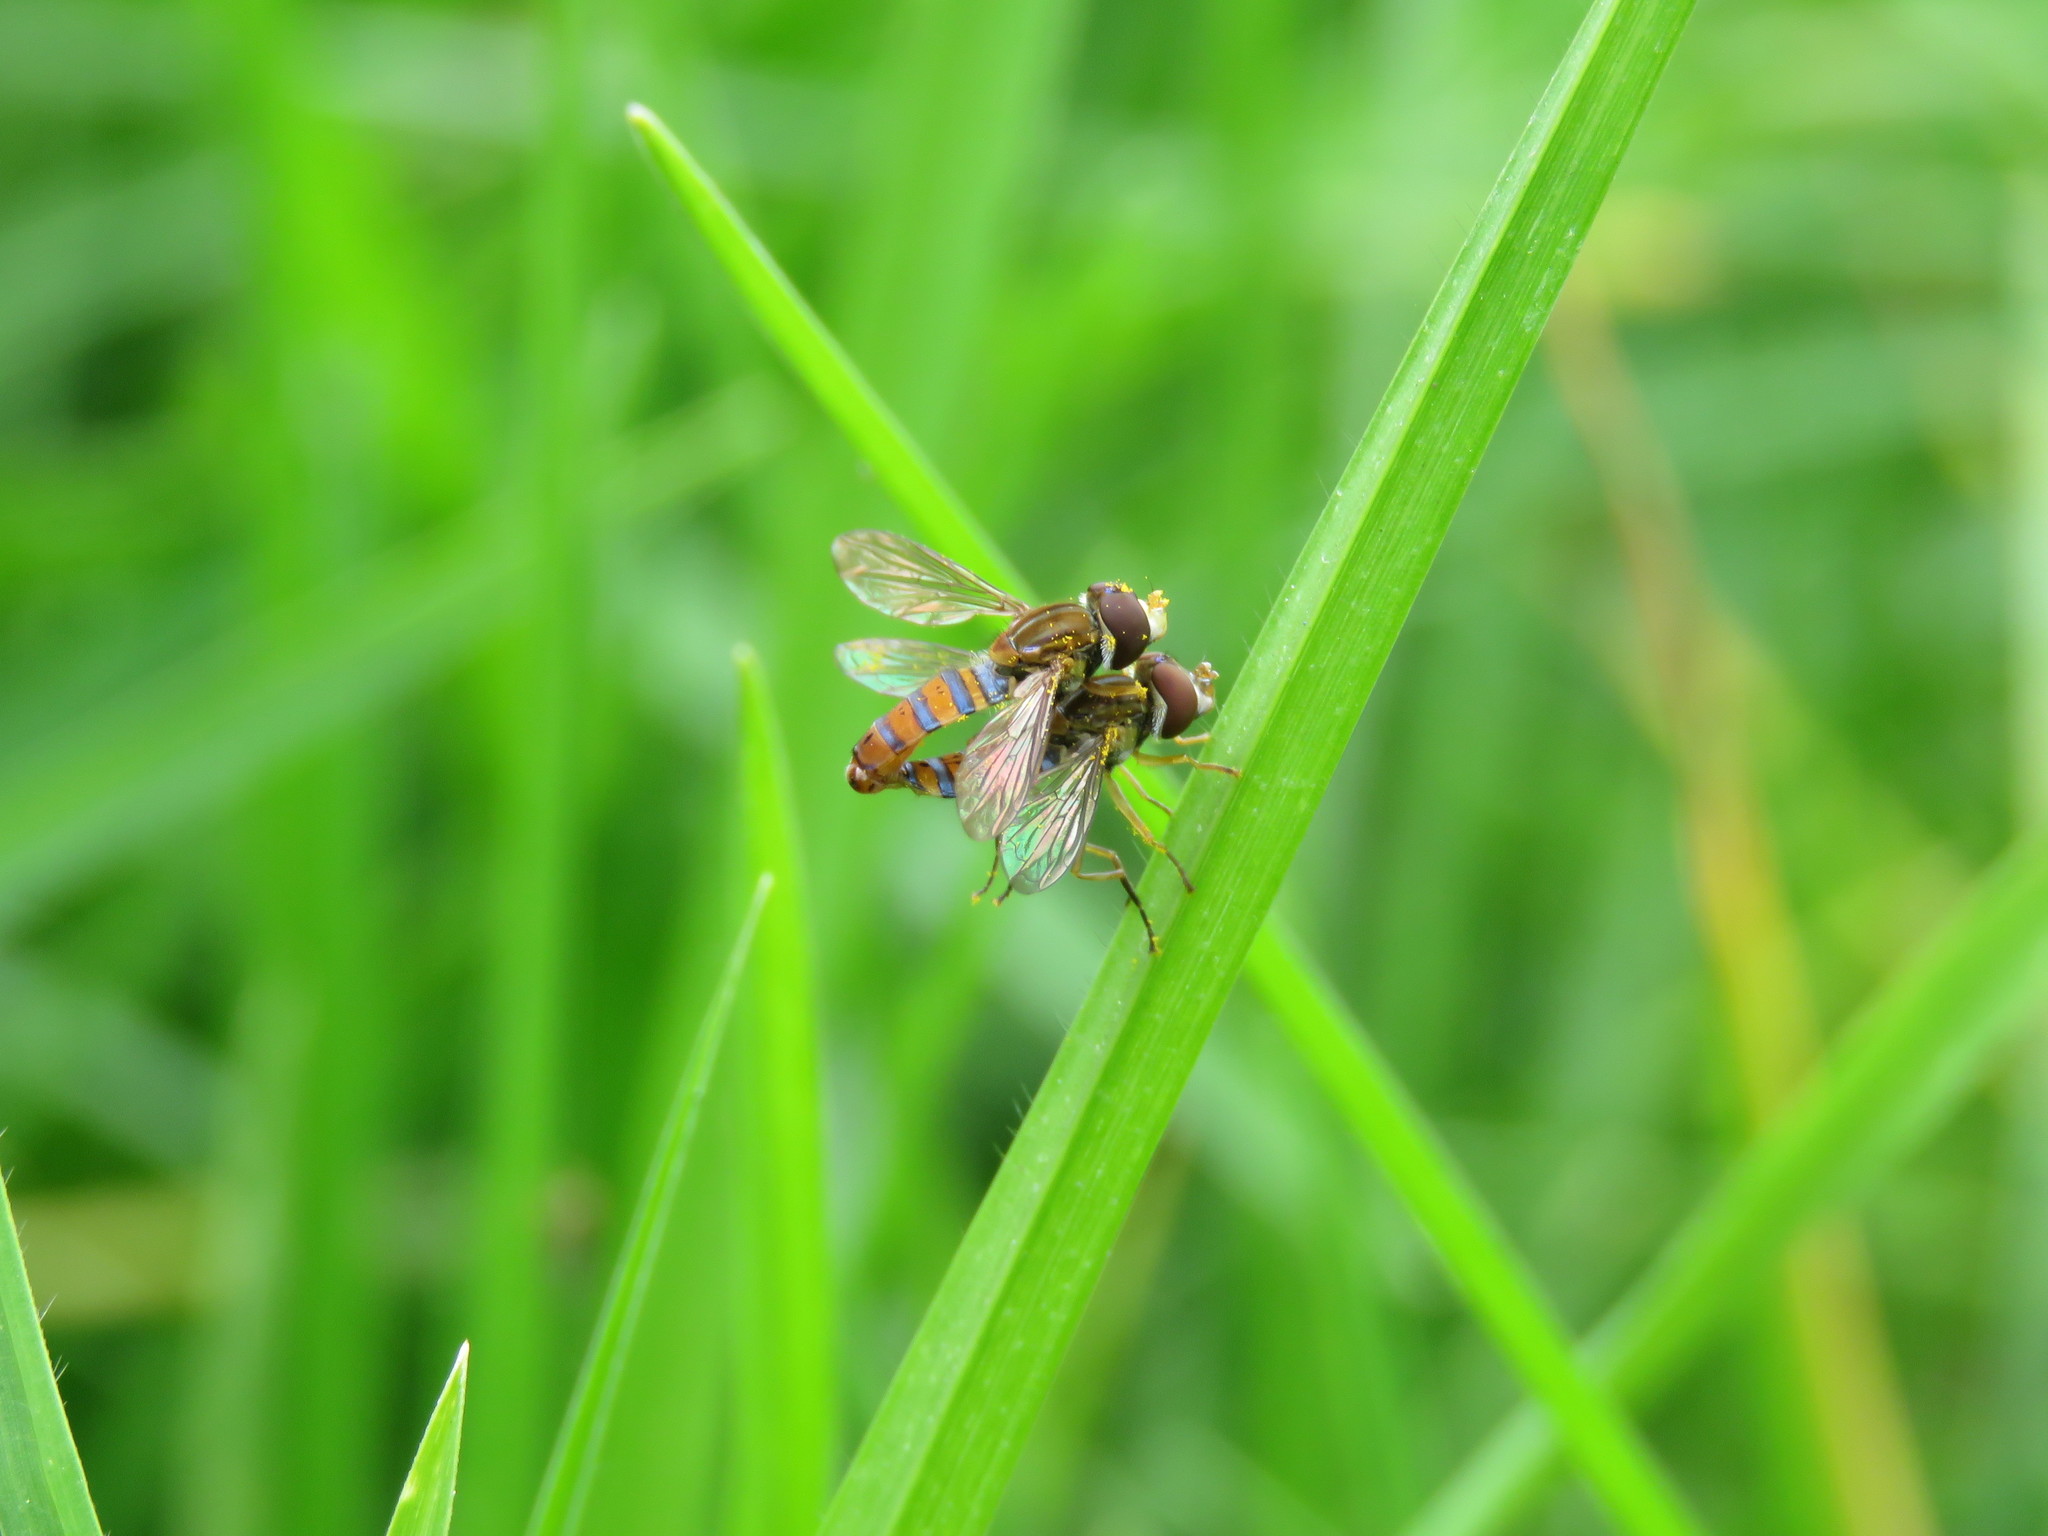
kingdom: Animalia
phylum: Arthropoda
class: Insecta
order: Diptera
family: Syrphidae
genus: Toxomerus
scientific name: Toxomerus
